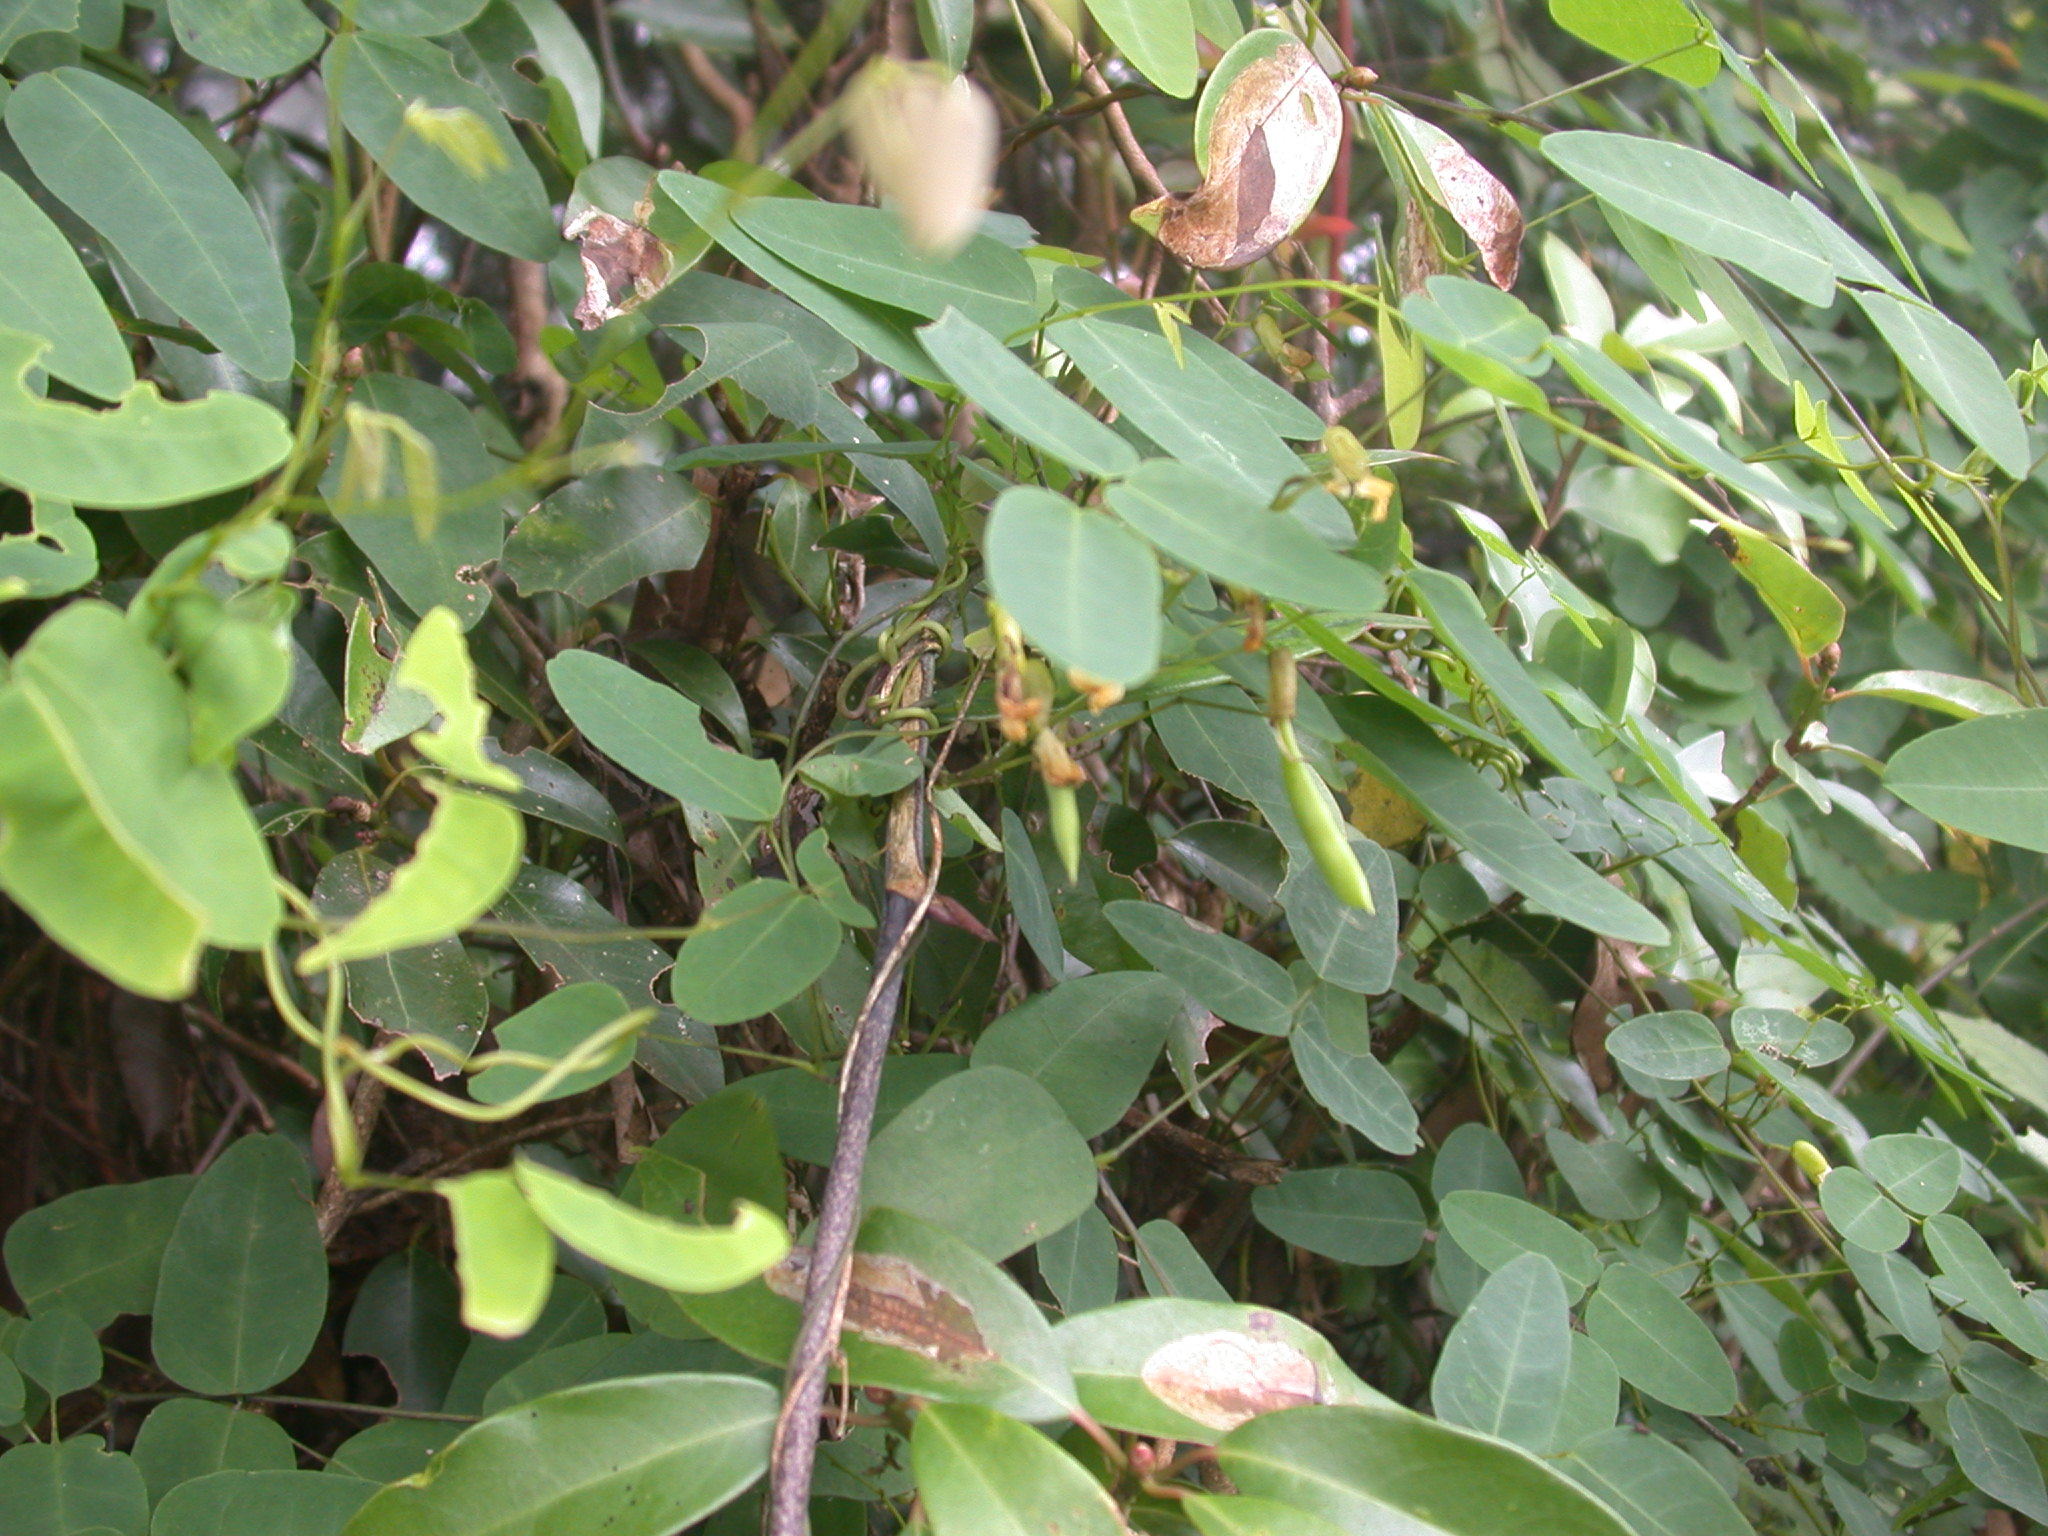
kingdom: Plantae
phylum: Tracheophyta
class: Magnoliopsida
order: Fabales
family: Fabaceae
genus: Dumasia
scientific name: Dumasia villosa
